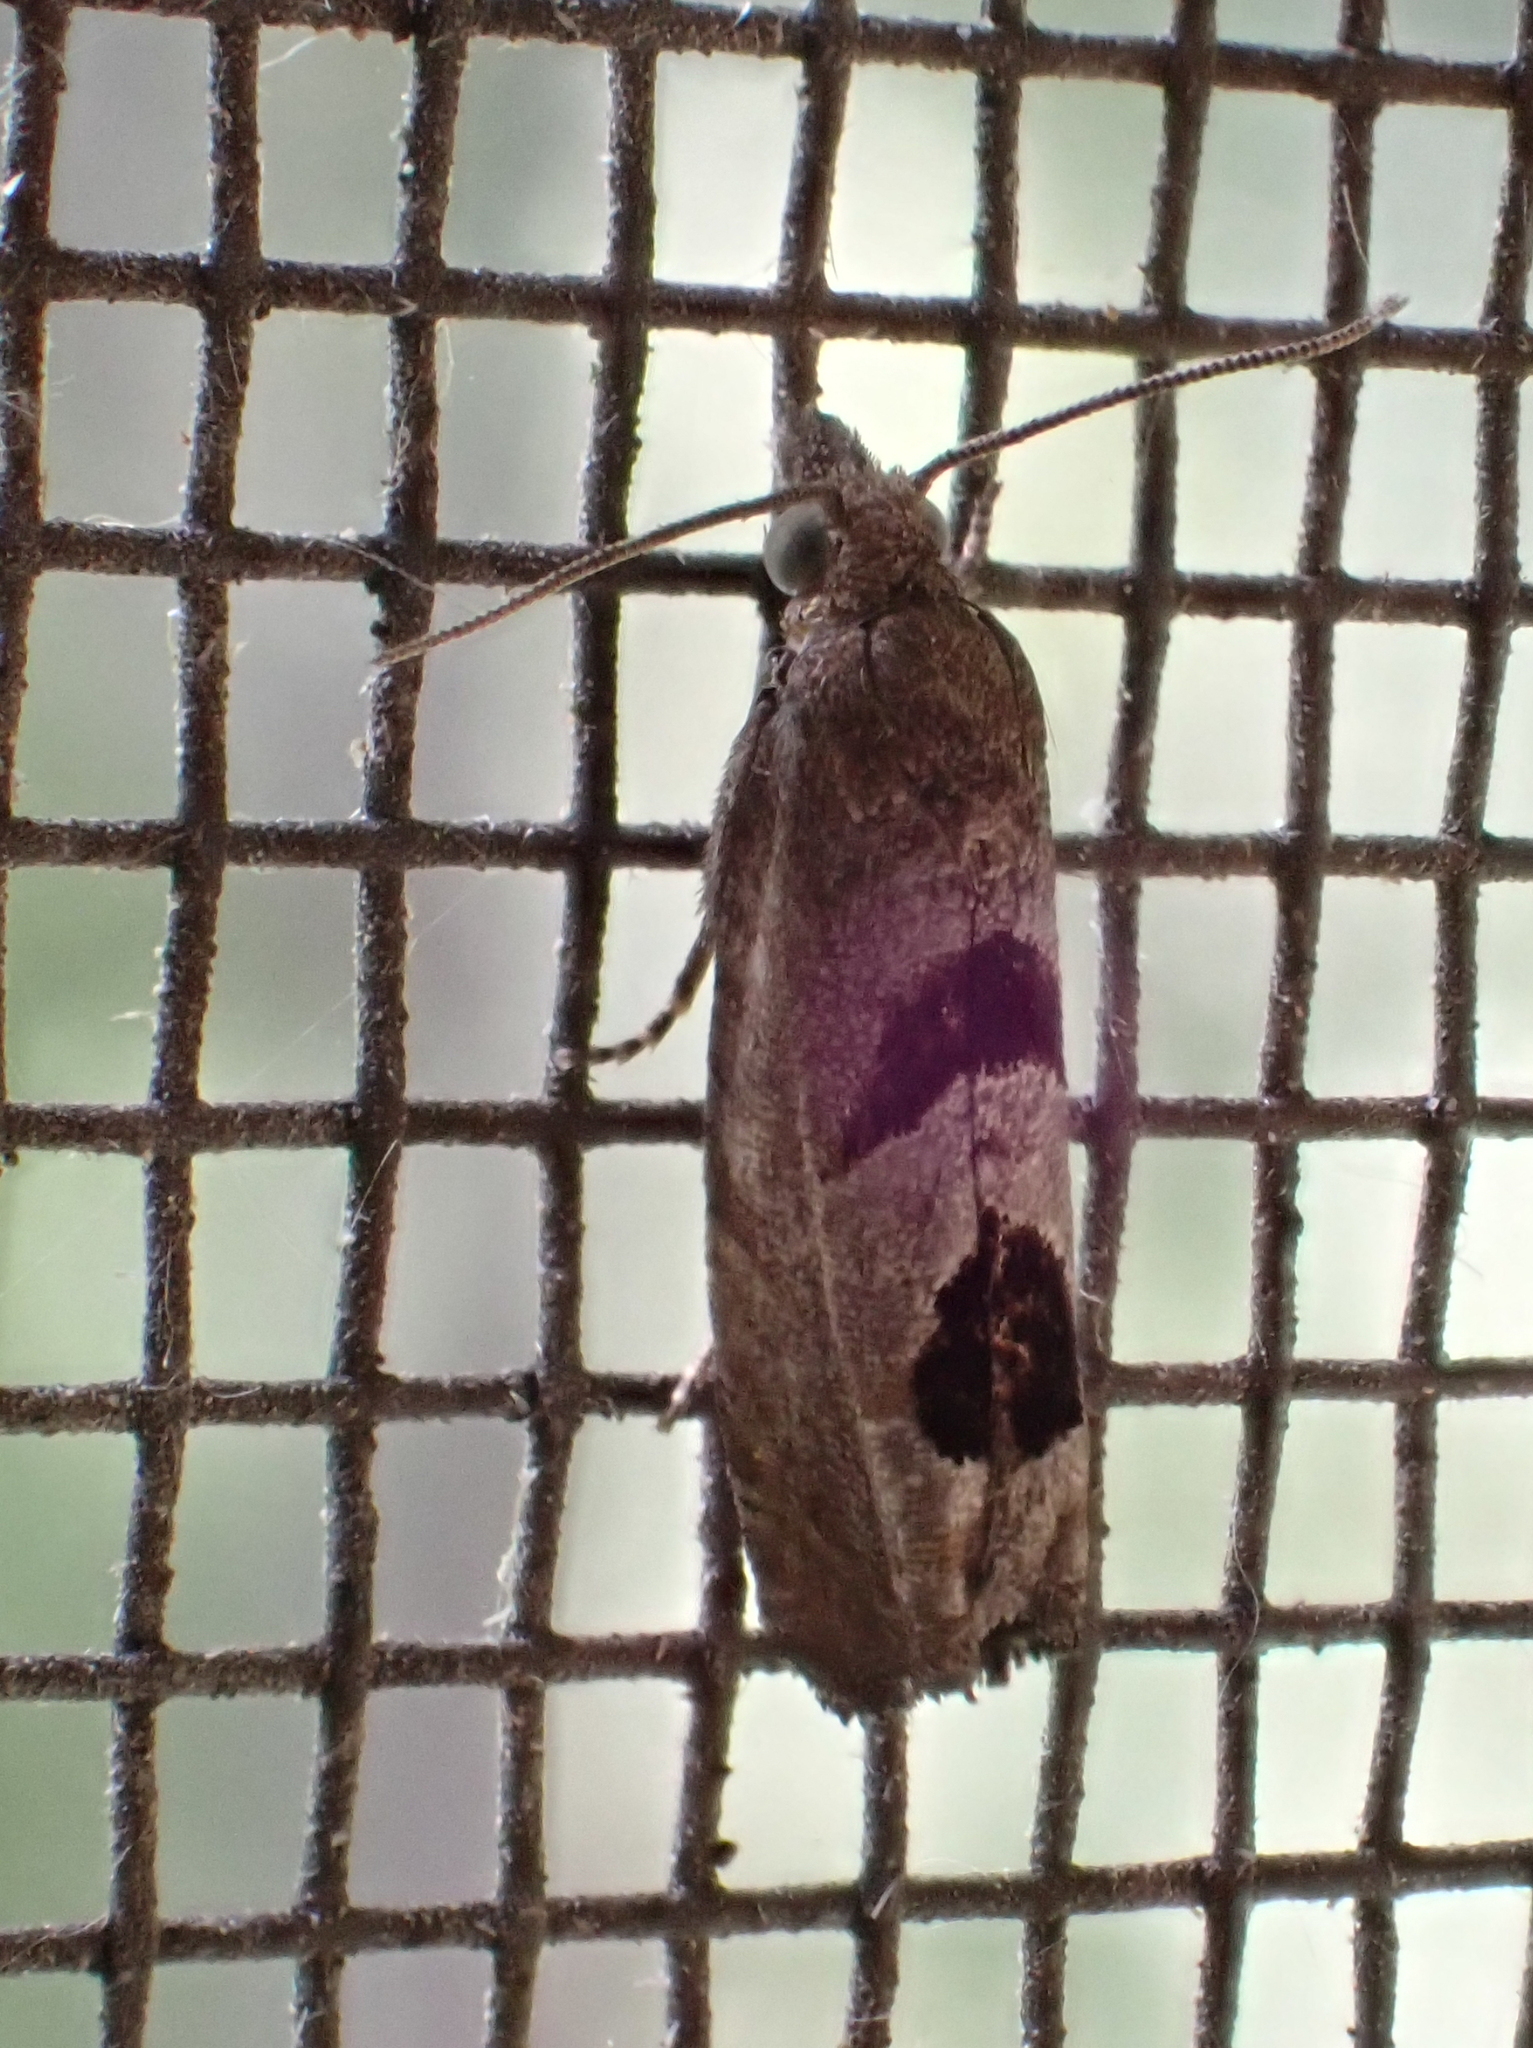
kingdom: Animalia
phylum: Arthropoda
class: Insecta
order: Lepidoptera
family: Tortricidae
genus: Eucosma
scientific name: Eucosma tomonana
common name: Aster-head eucosma moth
